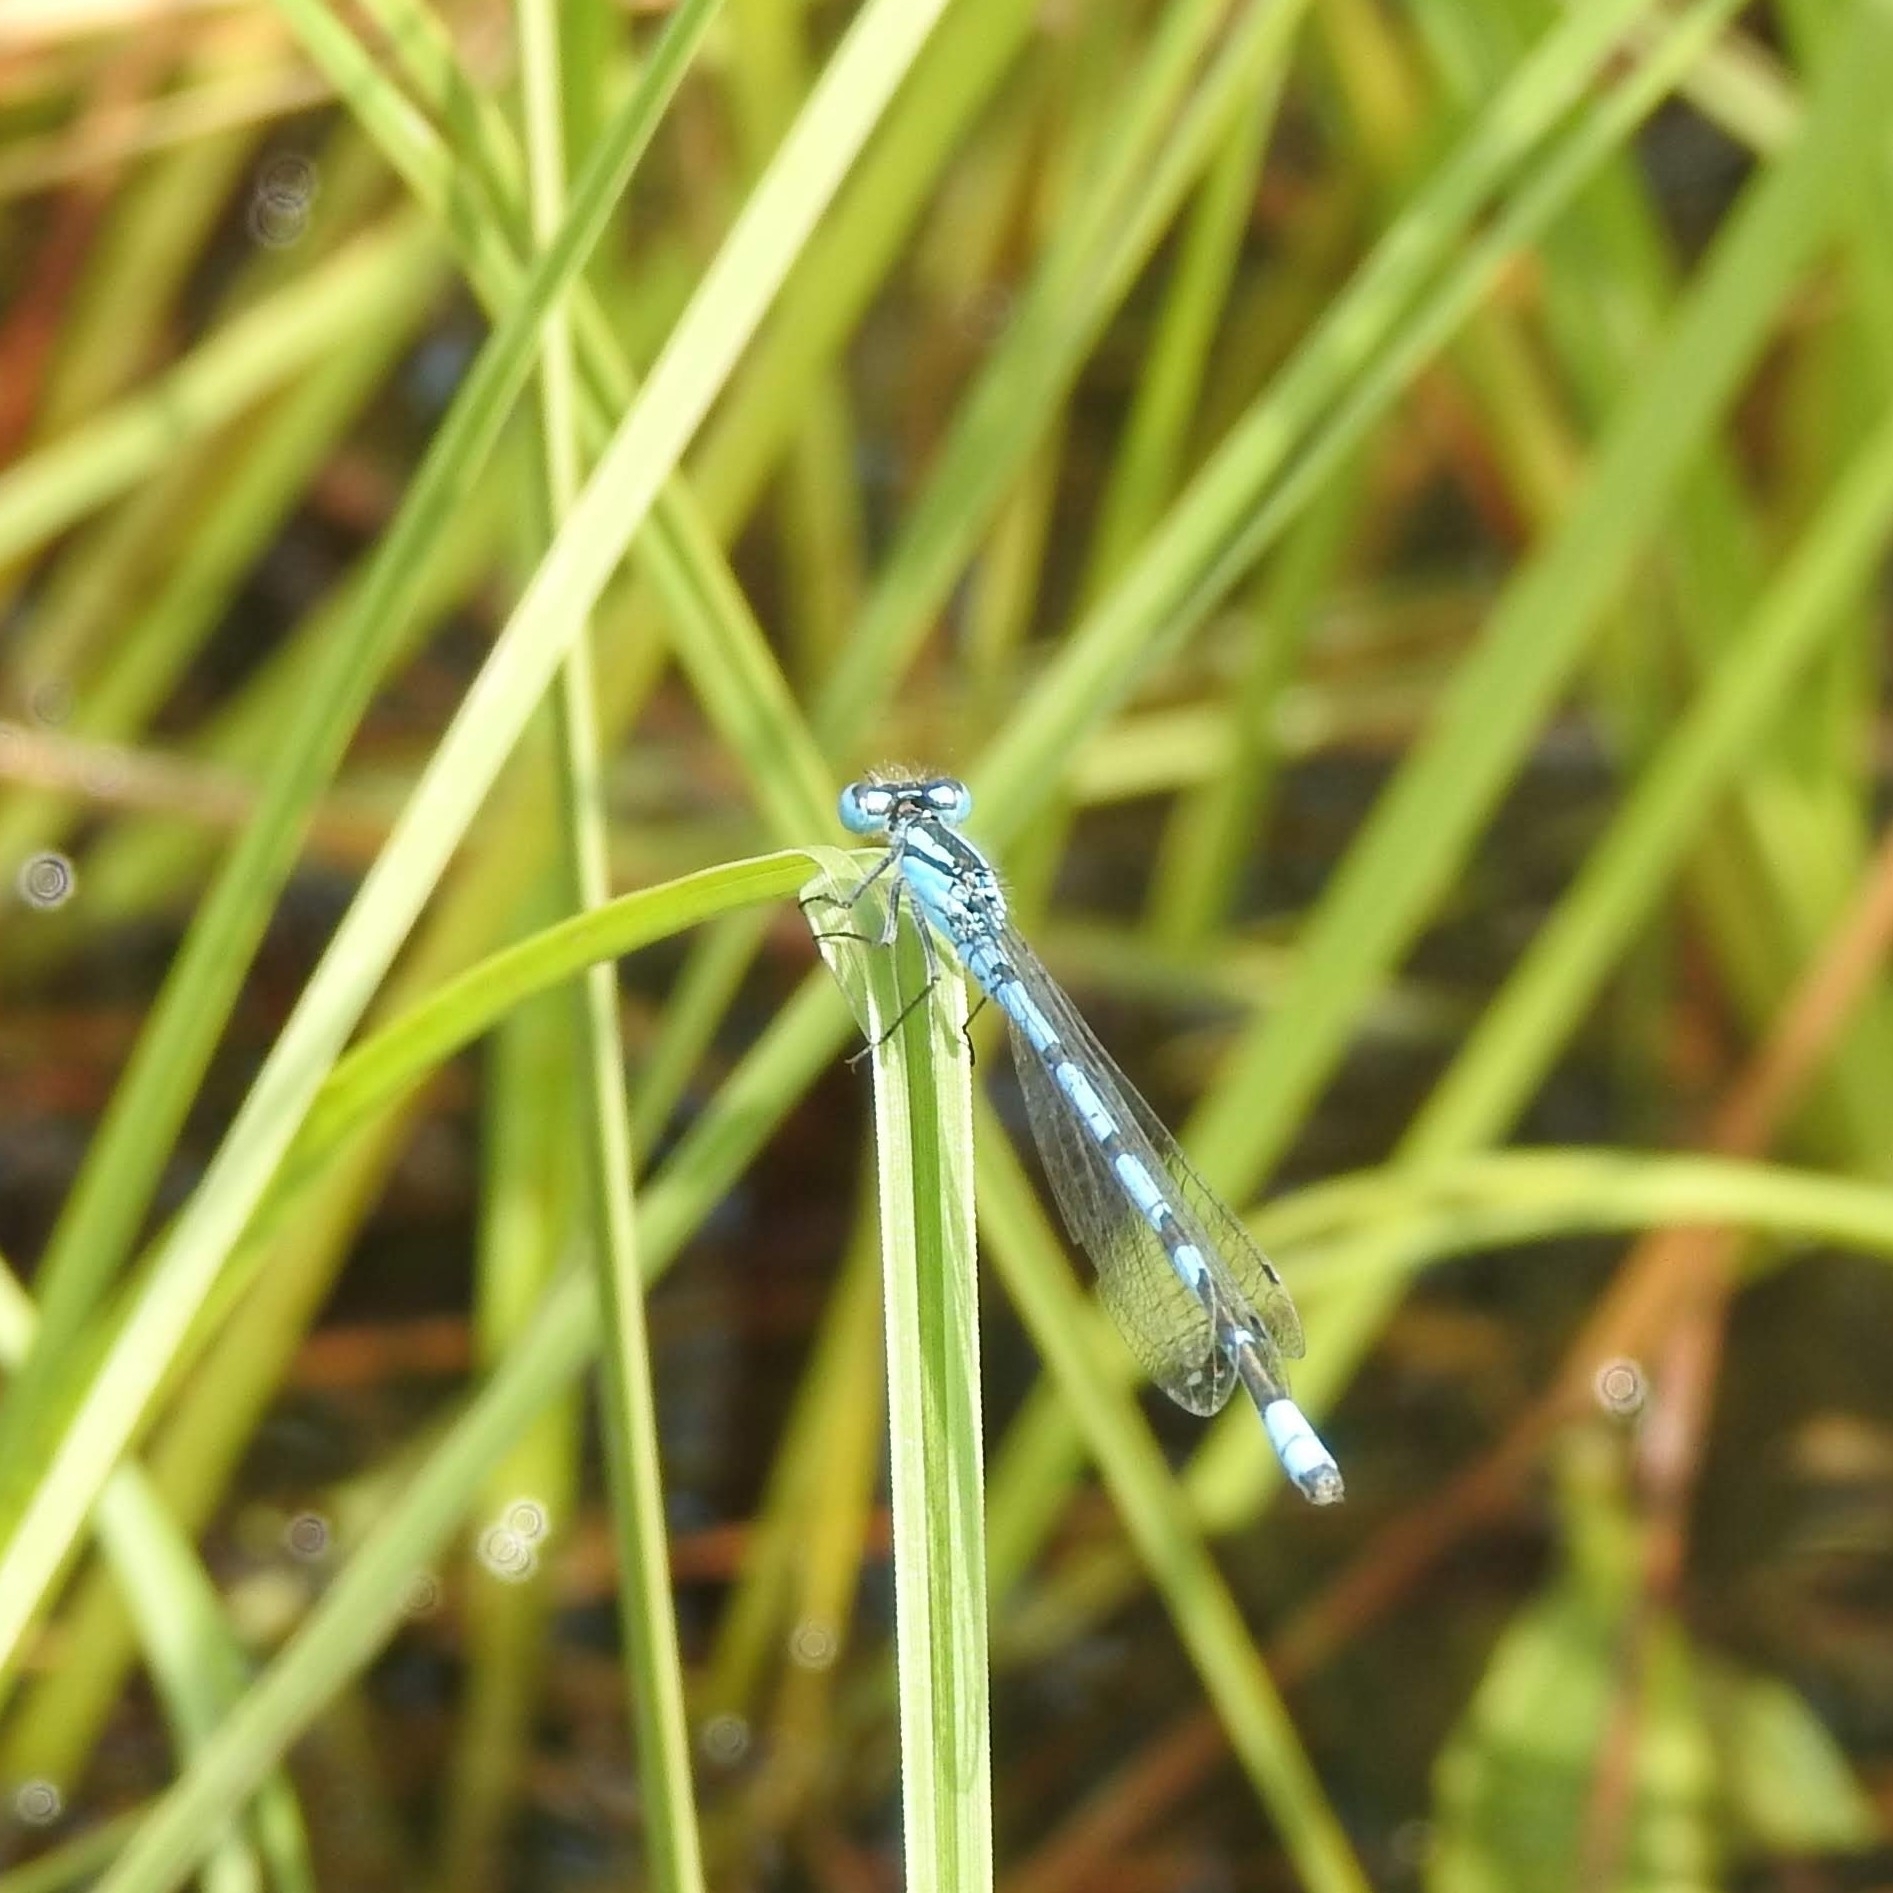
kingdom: Animalia
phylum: Arthropoda
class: Insecta
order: Odonata
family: Coenagrionidae
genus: Enallagma
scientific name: Enallagma cyathigerum
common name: Common blue damselfly
